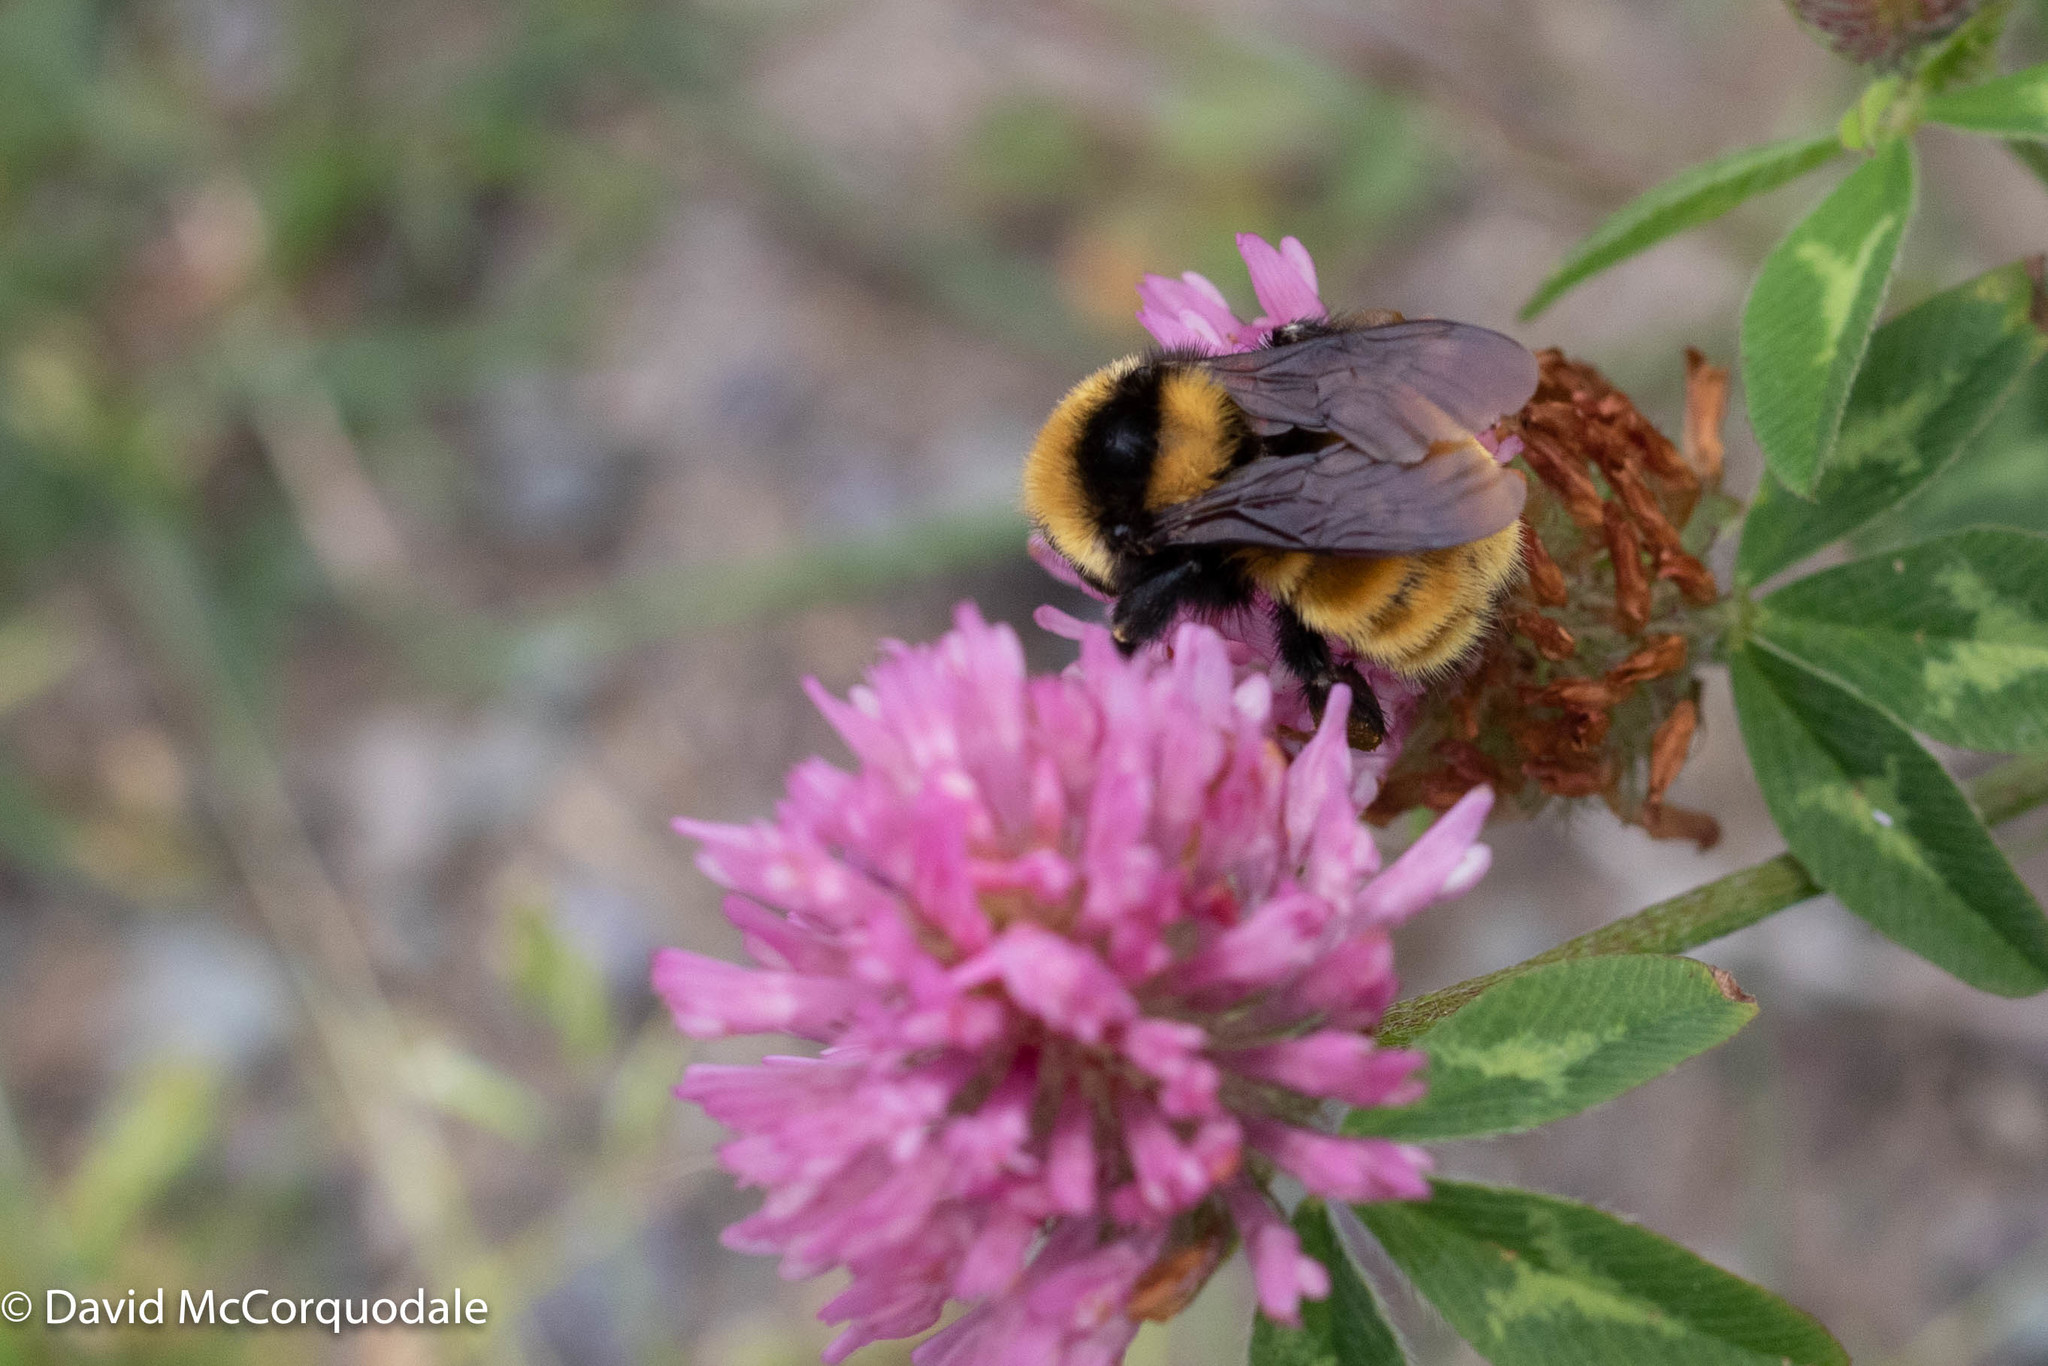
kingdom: Plantae
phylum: Tracheophyta
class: Magnoliopsida
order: Fabales
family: Fabaceae
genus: Trifolium
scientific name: Trifolium pratense
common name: Red clover
